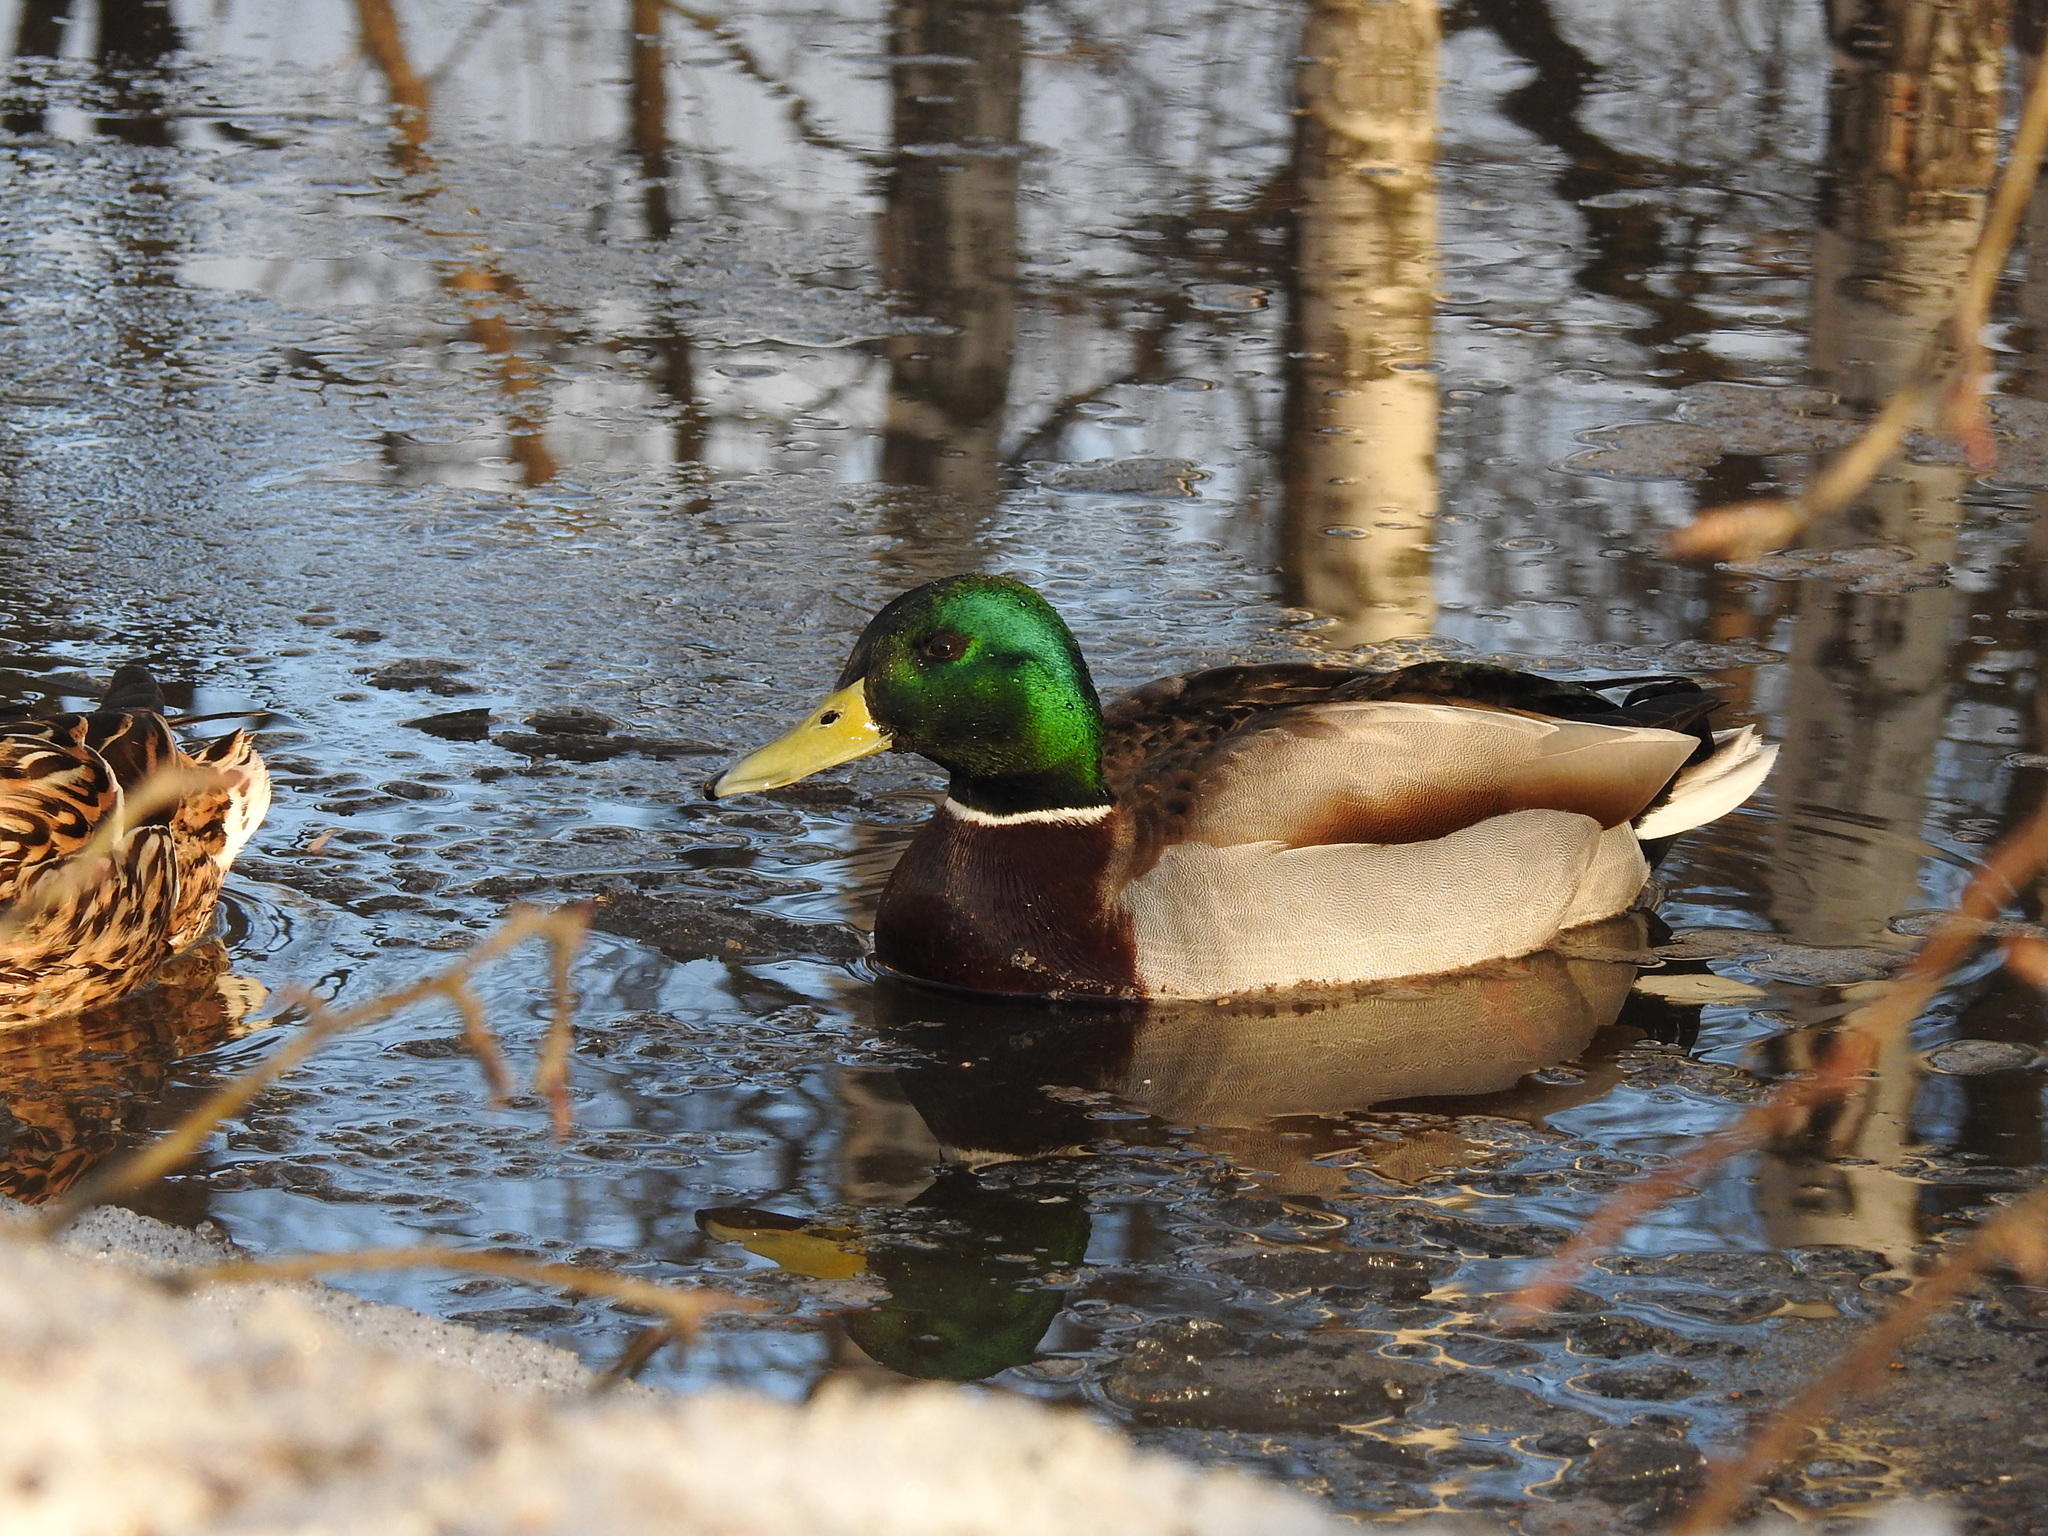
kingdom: Animalia
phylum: Chordata
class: Aves
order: Anseriformes
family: Anatidae
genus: Anas
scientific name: Anas platyrhynchos
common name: Mallard
